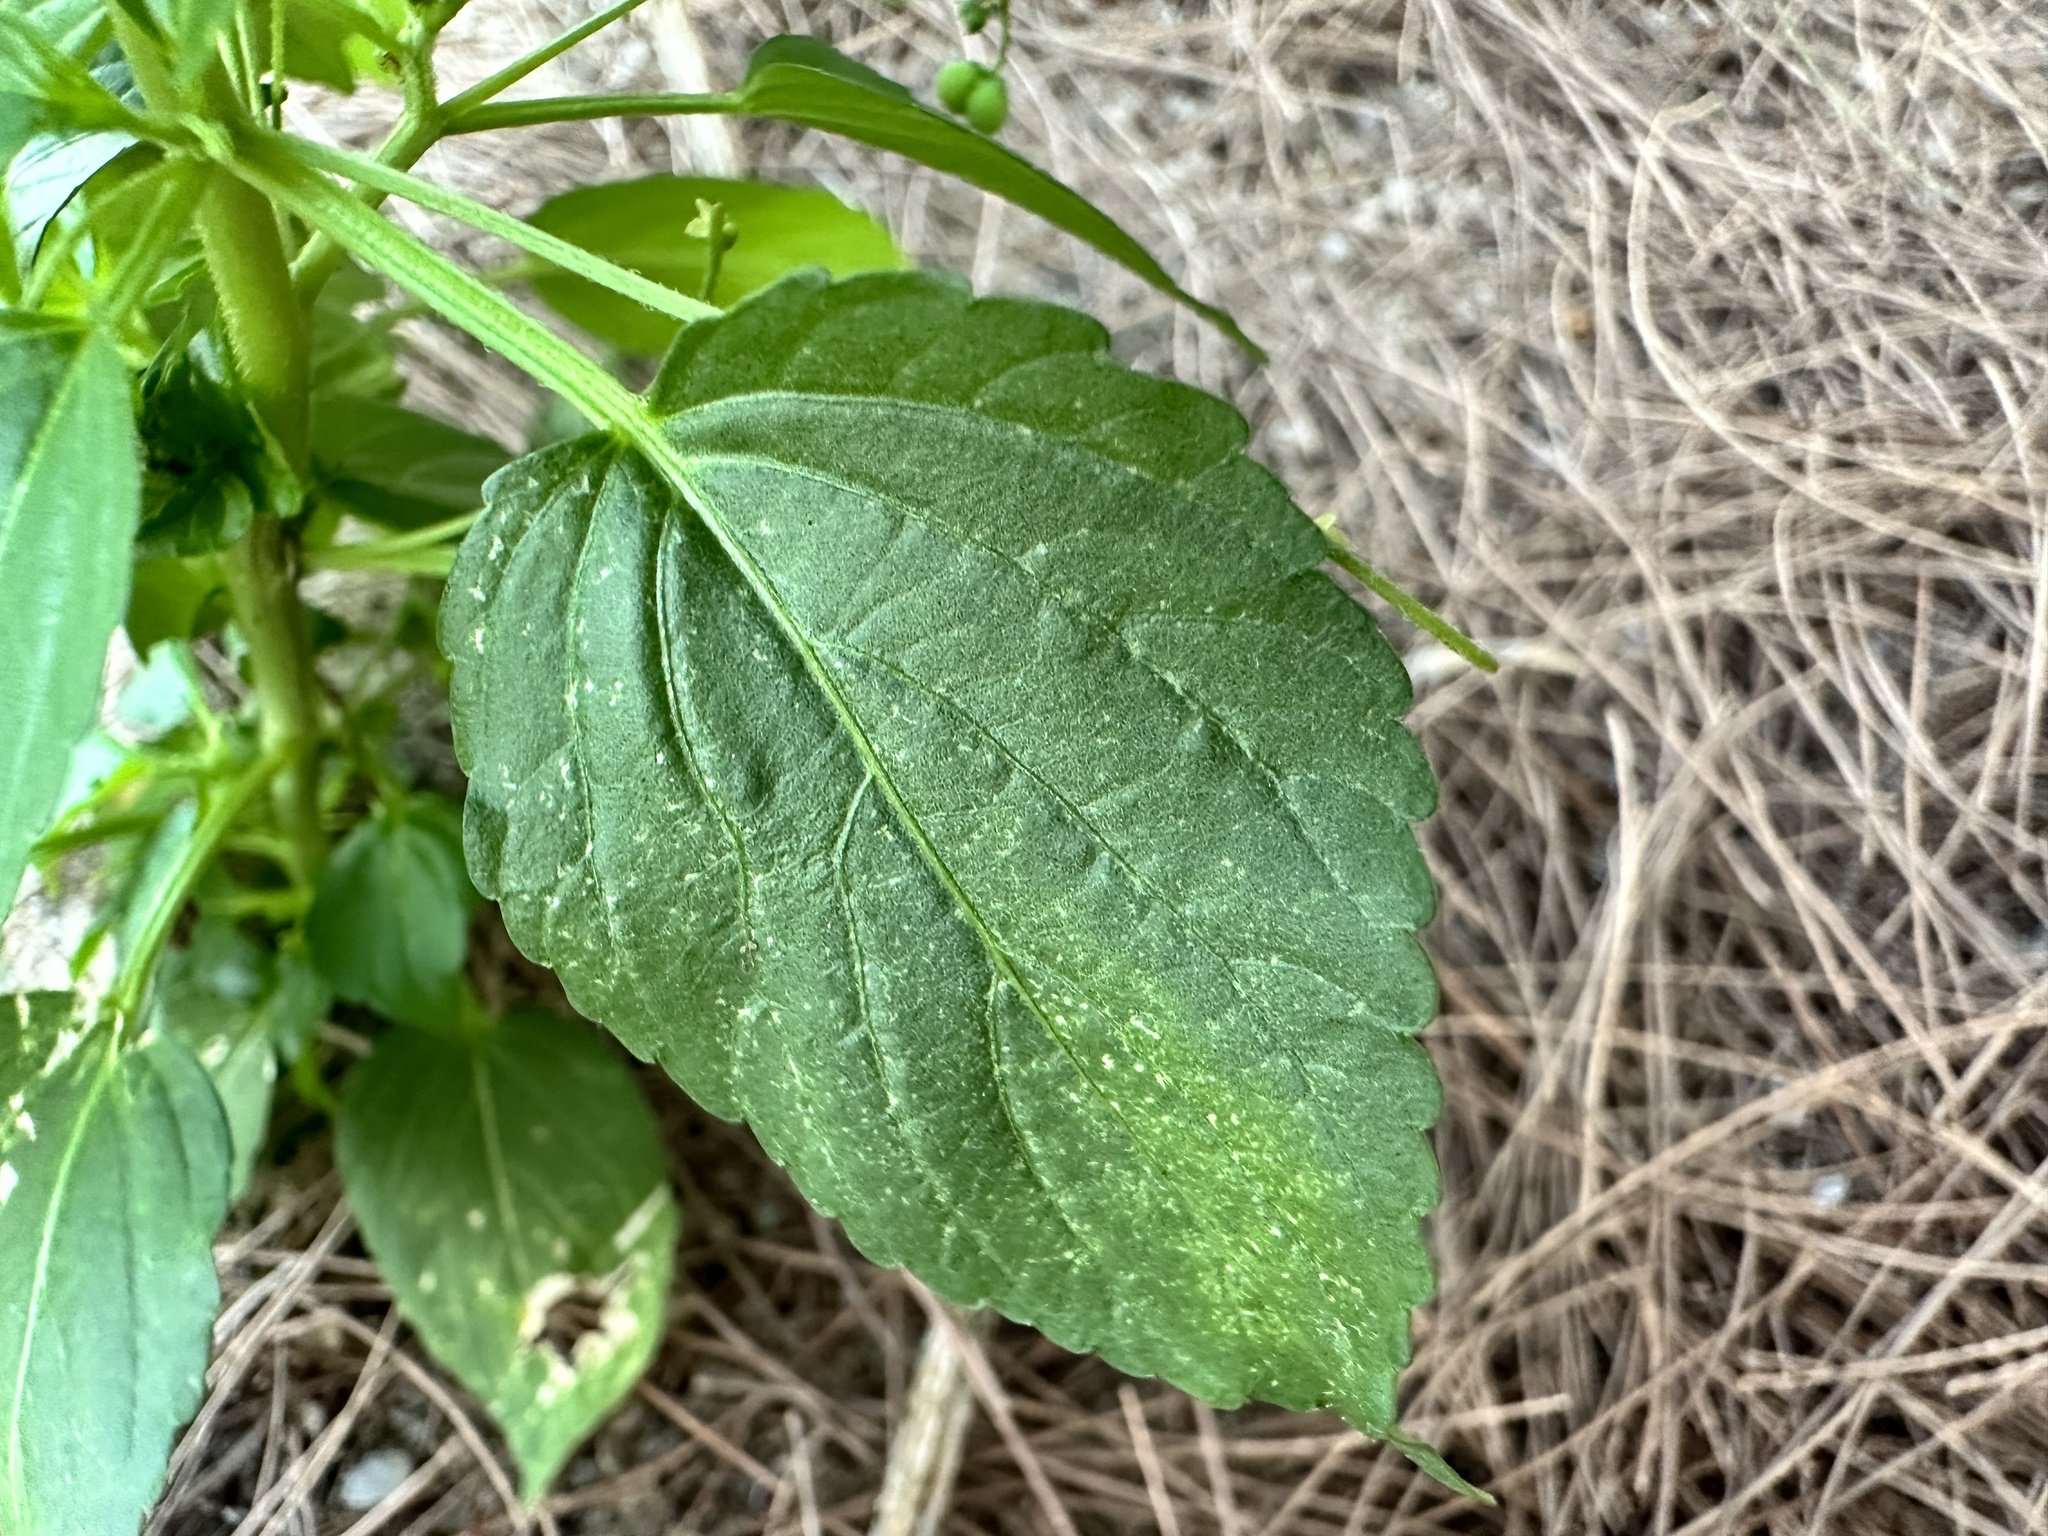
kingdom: Plantae
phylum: Tracheophyta
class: Magnoliopsida
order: Malpighiales
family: Euphorbiaceae
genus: Micrococca
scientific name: Micrococca mercurialis
